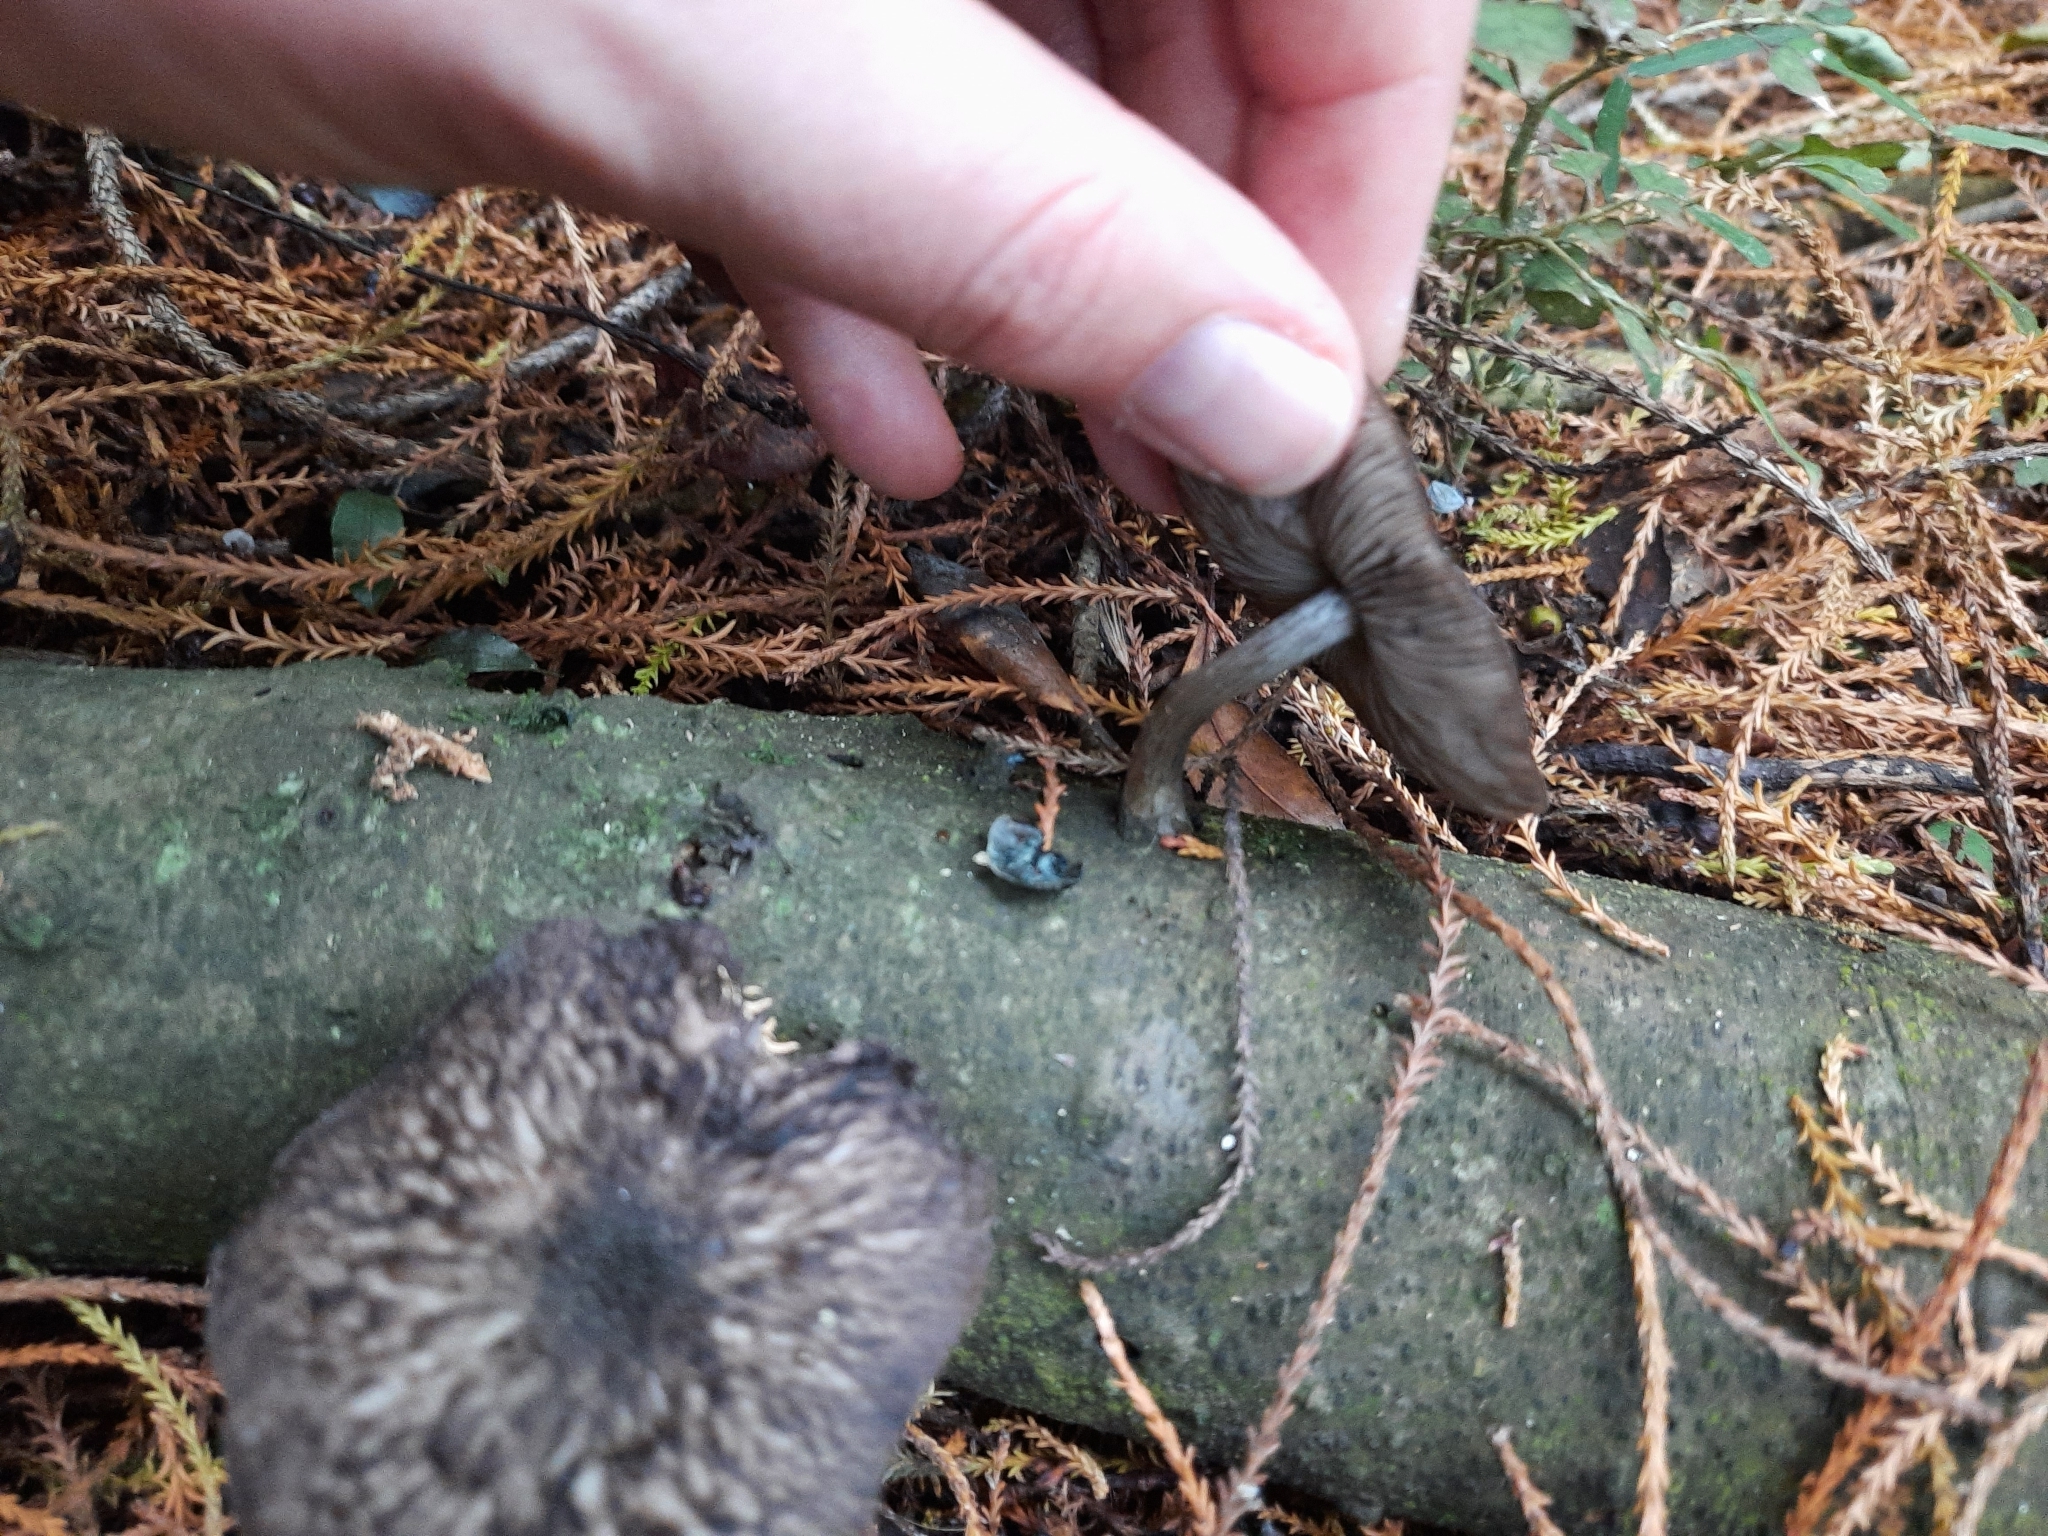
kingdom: Fungi
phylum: Basidiomycota
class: Agaricomycetes
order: Agaricales
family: Pluteaceae
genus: Pluteus
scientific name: Pluteus velutinornatus
